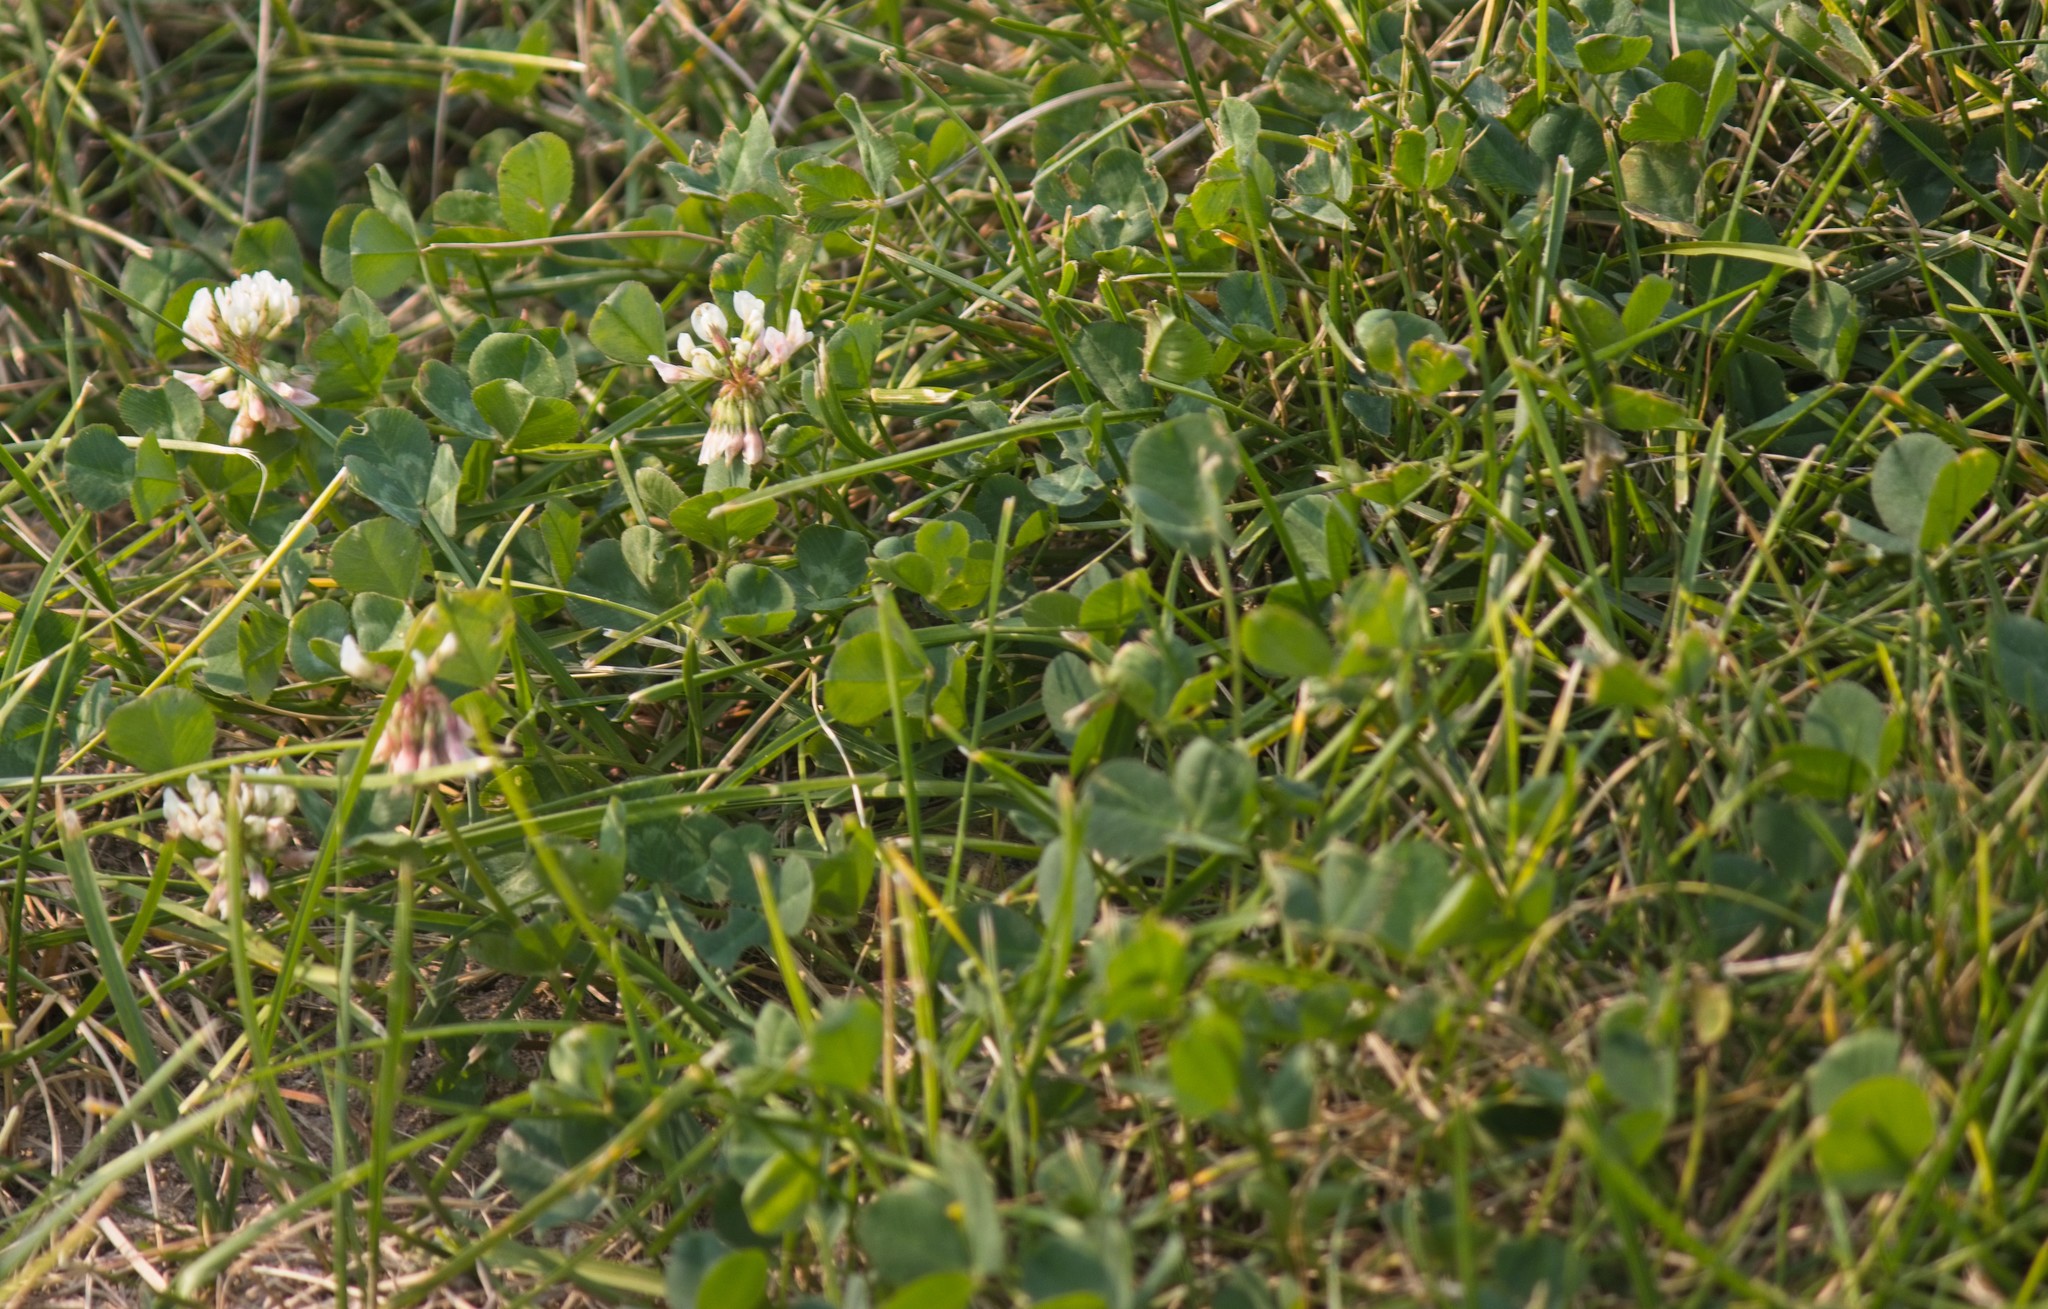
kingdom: Plantae
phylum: Tracheophyta
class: Magnoliopsida
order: Fabales
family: Fabaceae
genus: Trifolium
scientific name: Trifolium repens
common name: White clover
